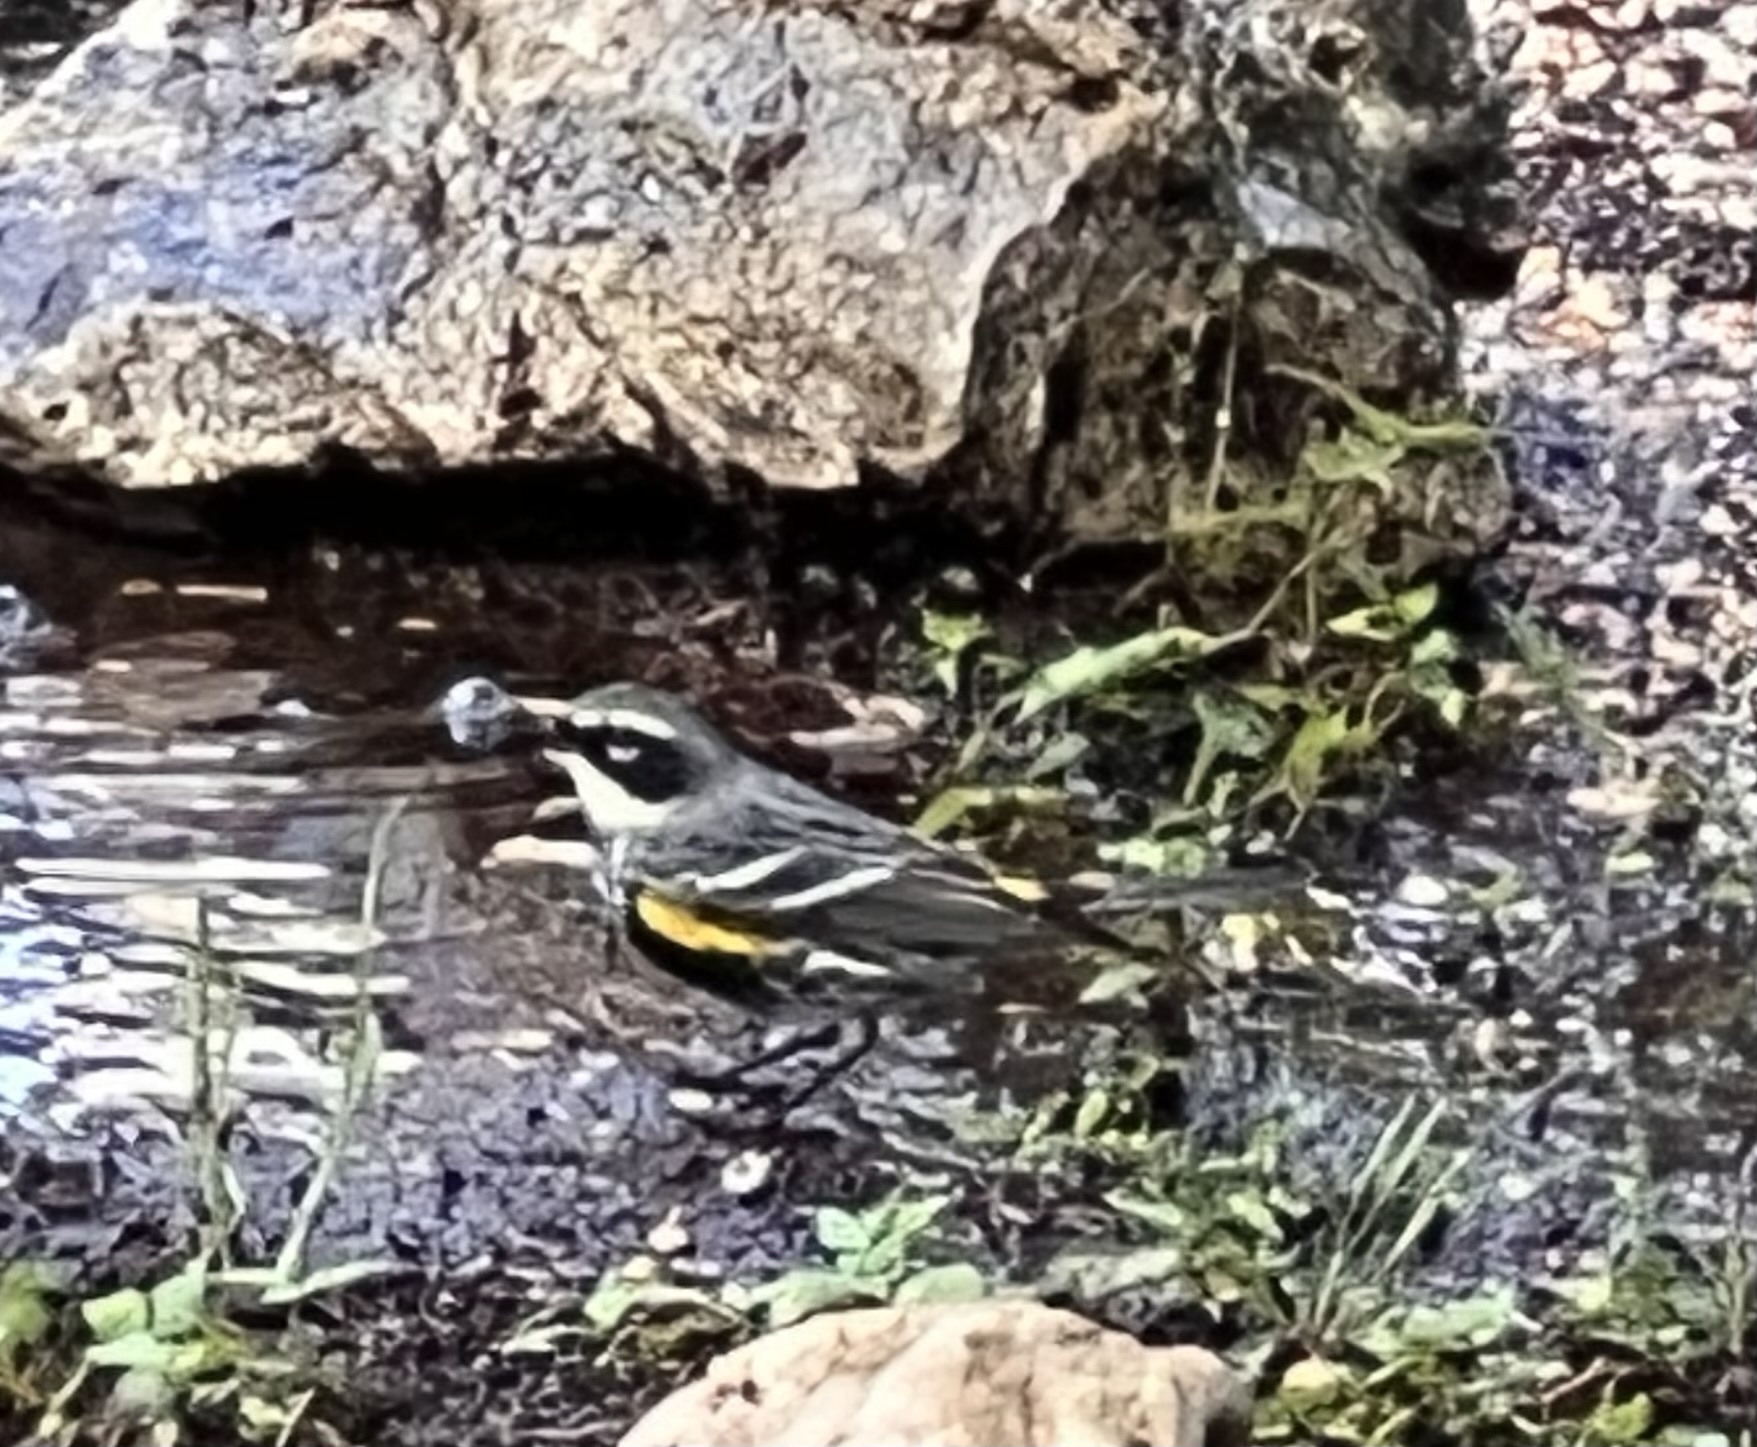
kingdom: Animalia
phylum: Chordata
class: Aves
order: Passeriformes
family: Parulidae
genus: Setophaga
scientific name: Setophaga coronata
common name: Myrtle warbler
